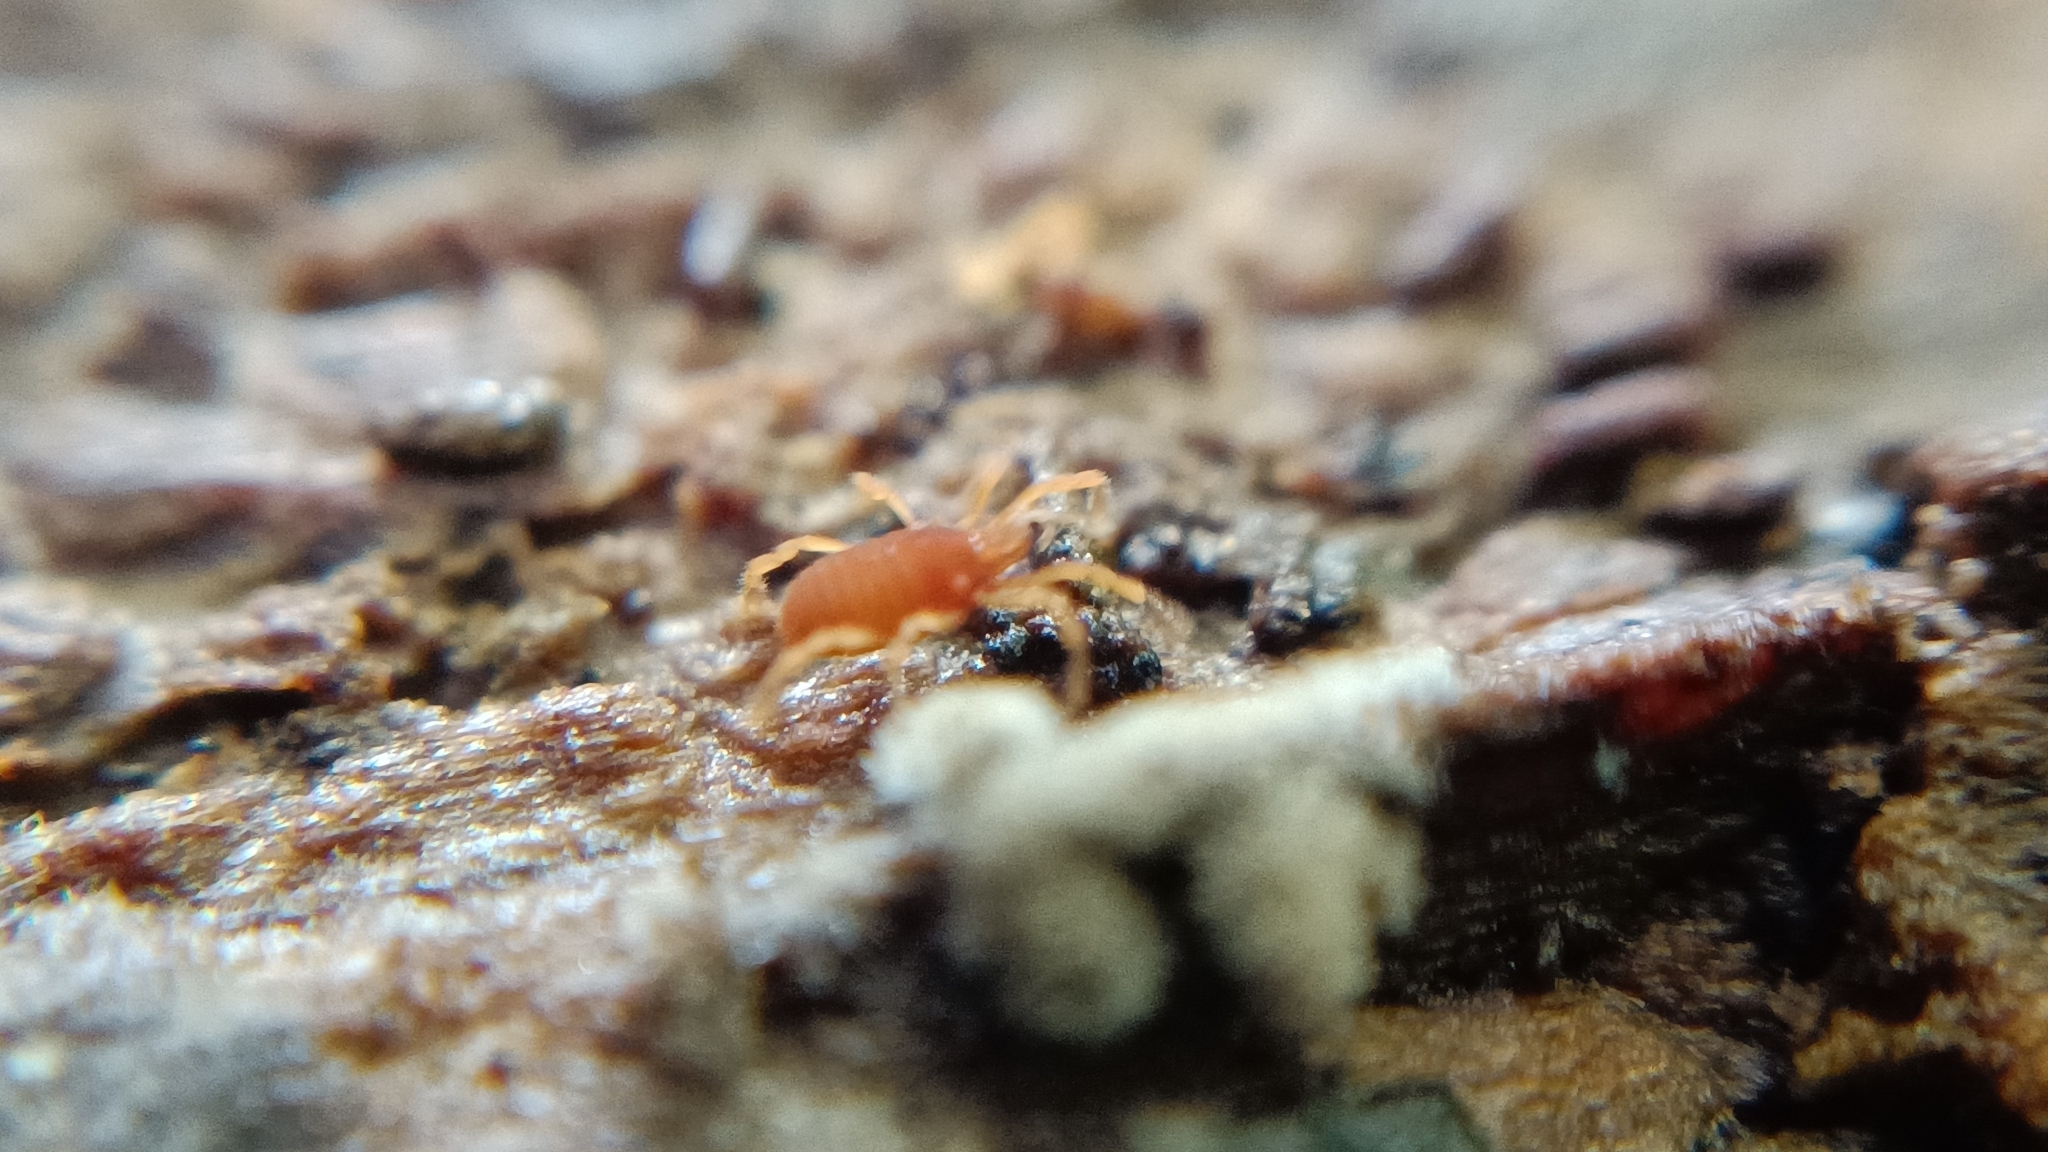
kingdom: Animalia
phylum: Arthropoda
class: Arachnida
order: Opiliones
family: Sironidae
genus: Siro
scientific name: Siro rubens
